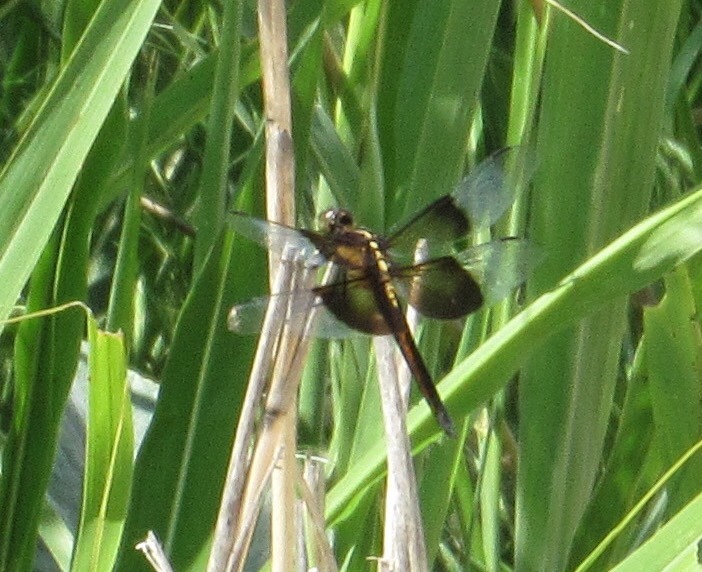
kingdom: Animalia
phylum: Arthropoda
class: Insecta
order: Odonata
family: Libellulidae
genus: Libellula
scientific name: Libellula luctuosa
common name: Widow skimmer
